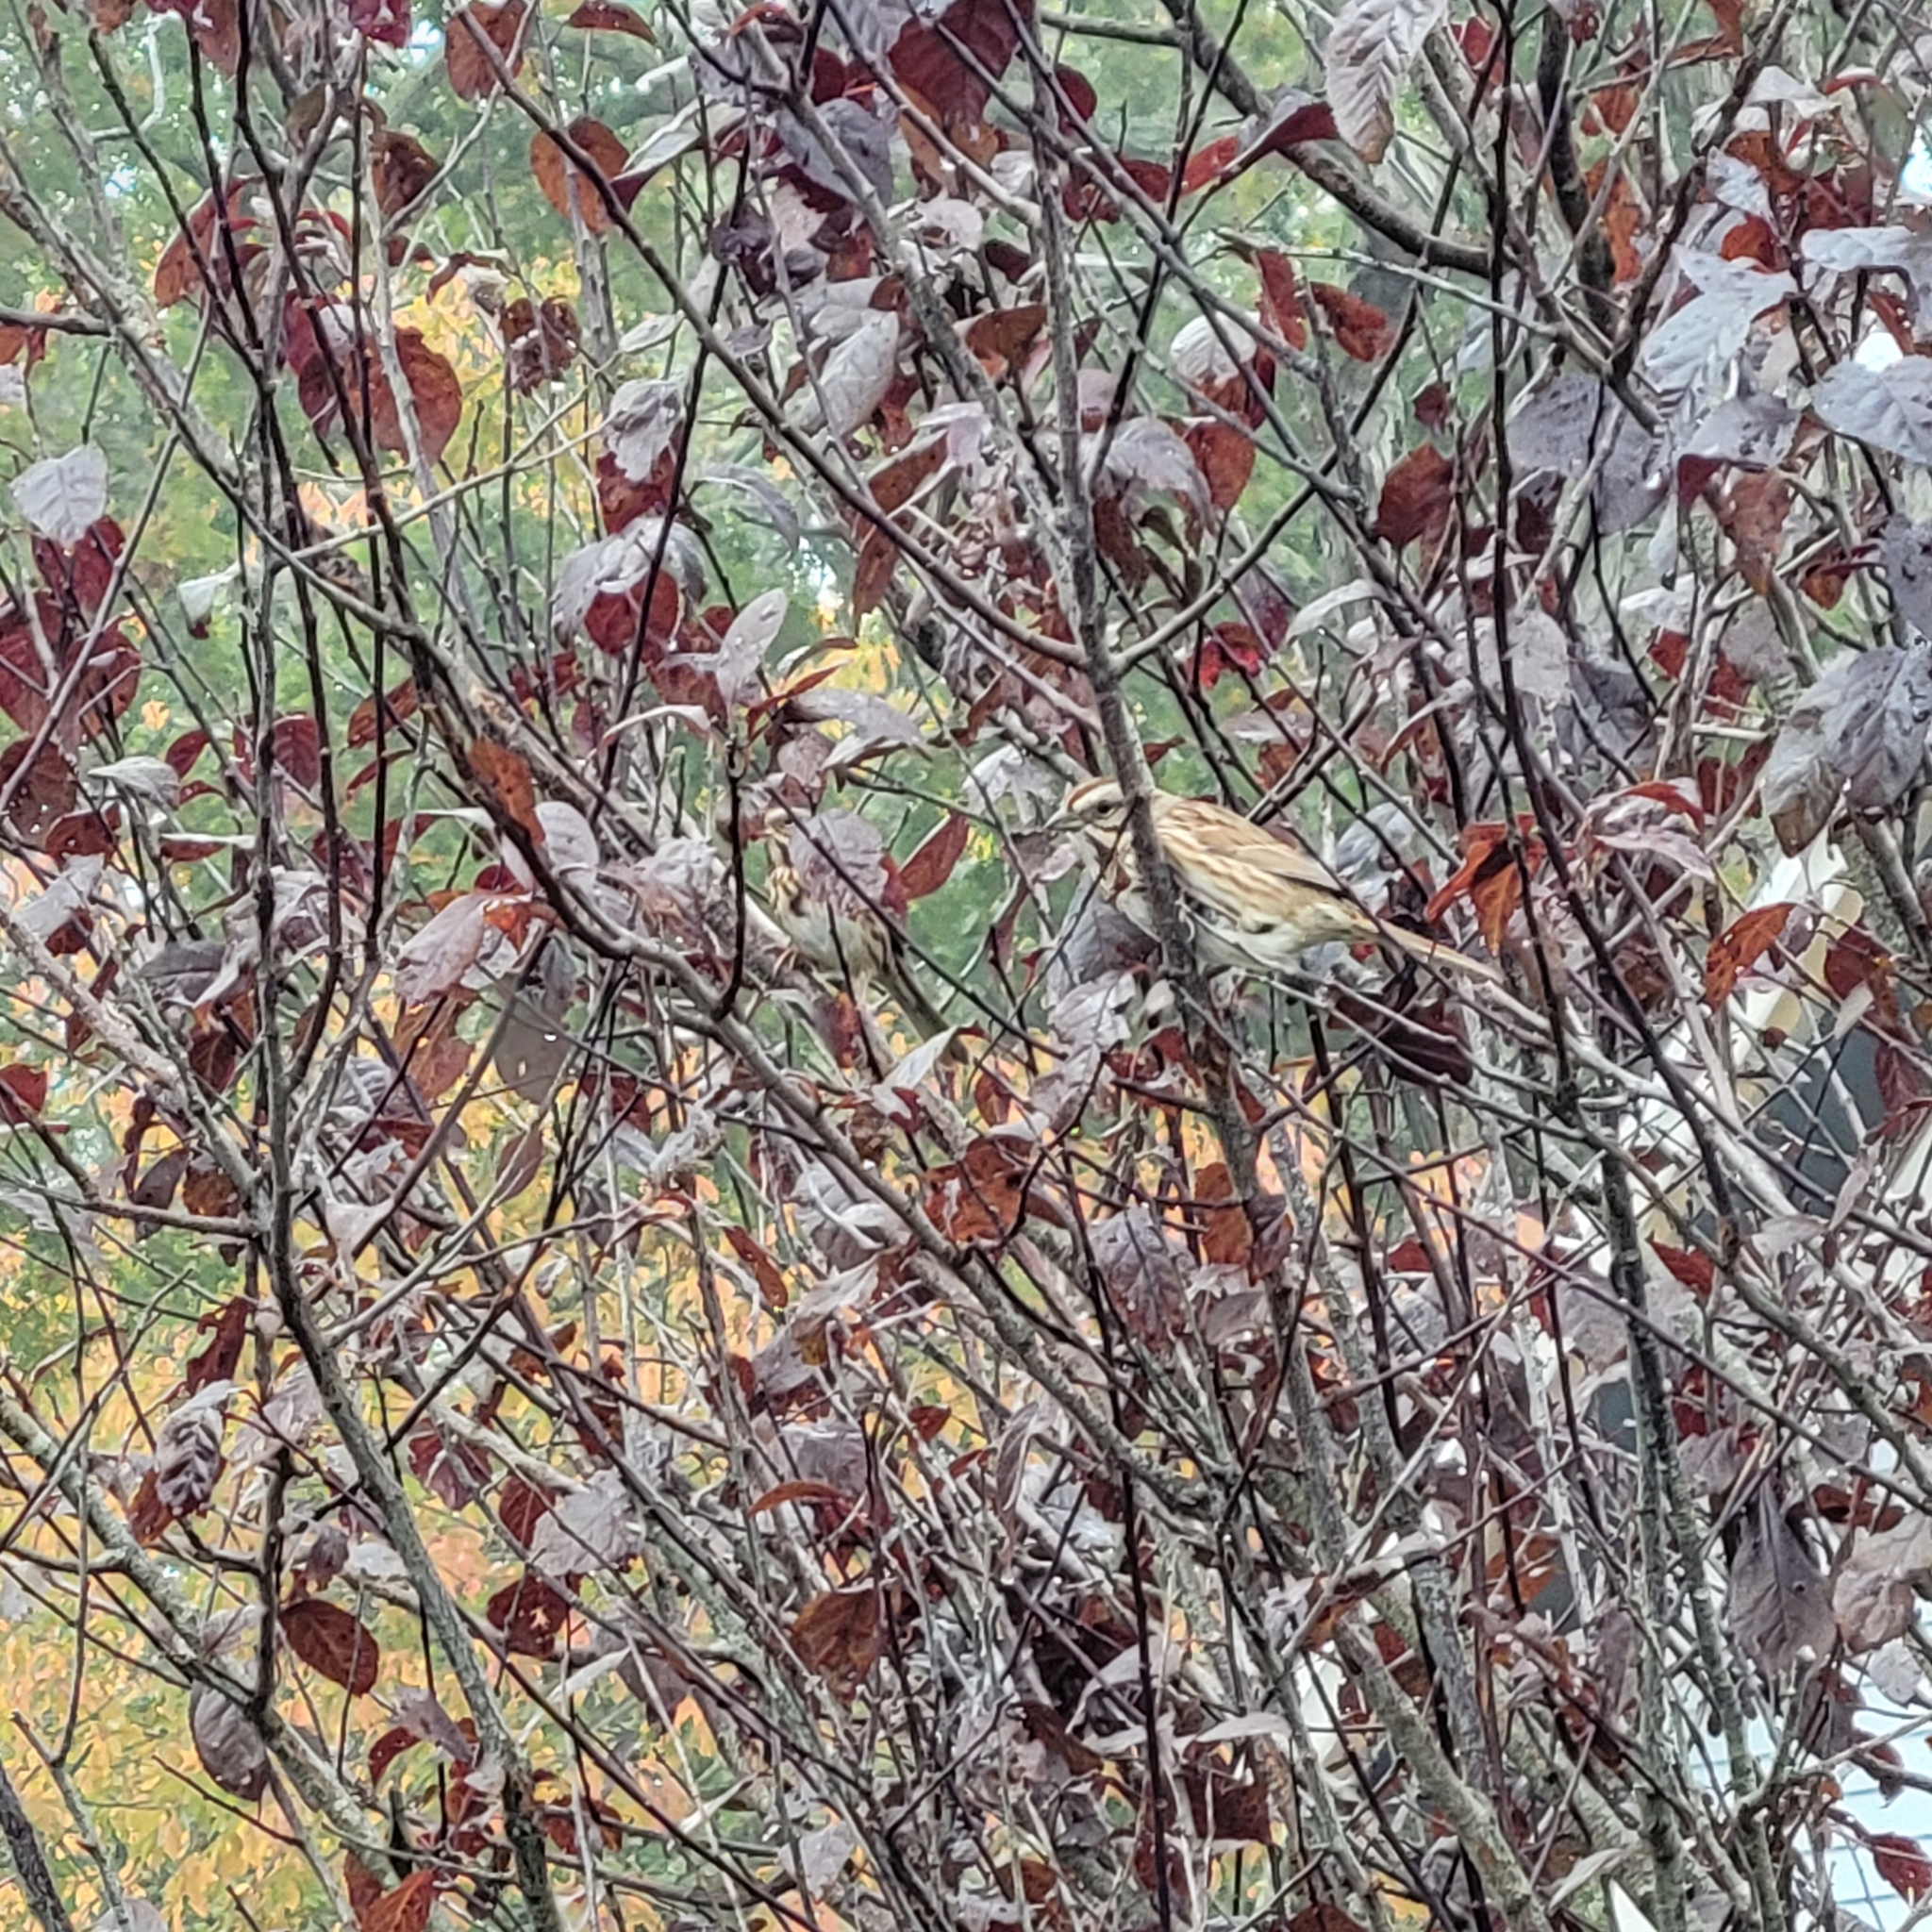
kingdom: Animalia
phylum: Chordata
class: Aves
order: Passeriformes
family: Passerellidae
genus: Melospiza
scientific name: Melospiza melodia
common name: Song sparrow
